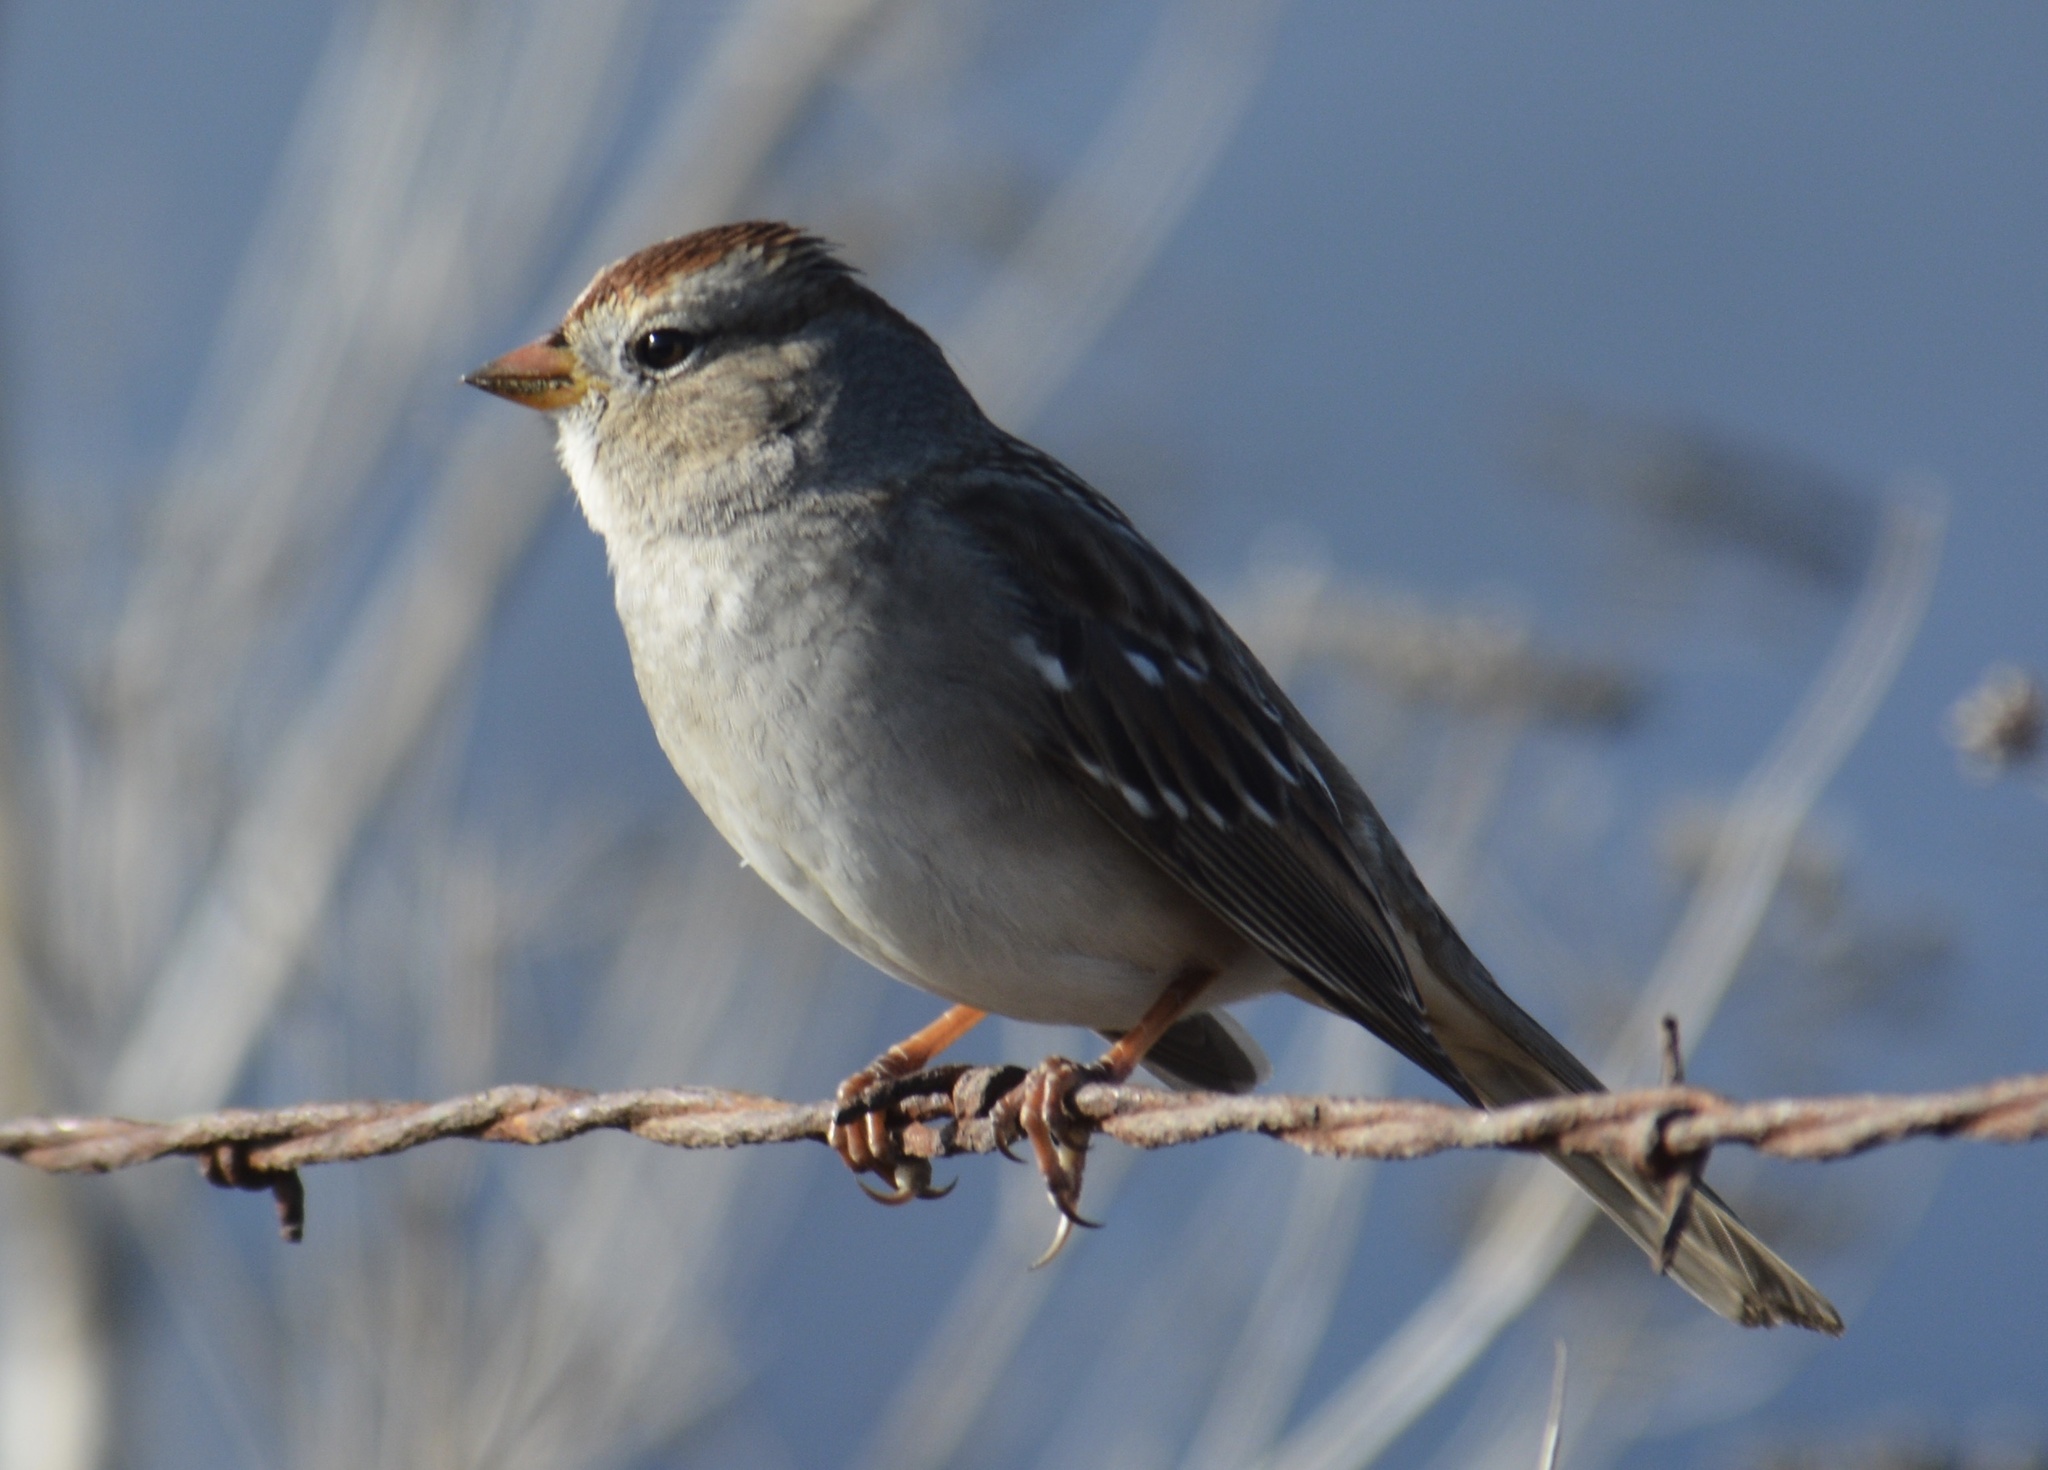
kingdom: Animalia
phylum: Chordata
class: Aves
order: Passeriformes
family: Passerellidae
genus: Zonotrichia
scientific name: Zonotrichia leucophrys
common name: White-crowned sparrow
